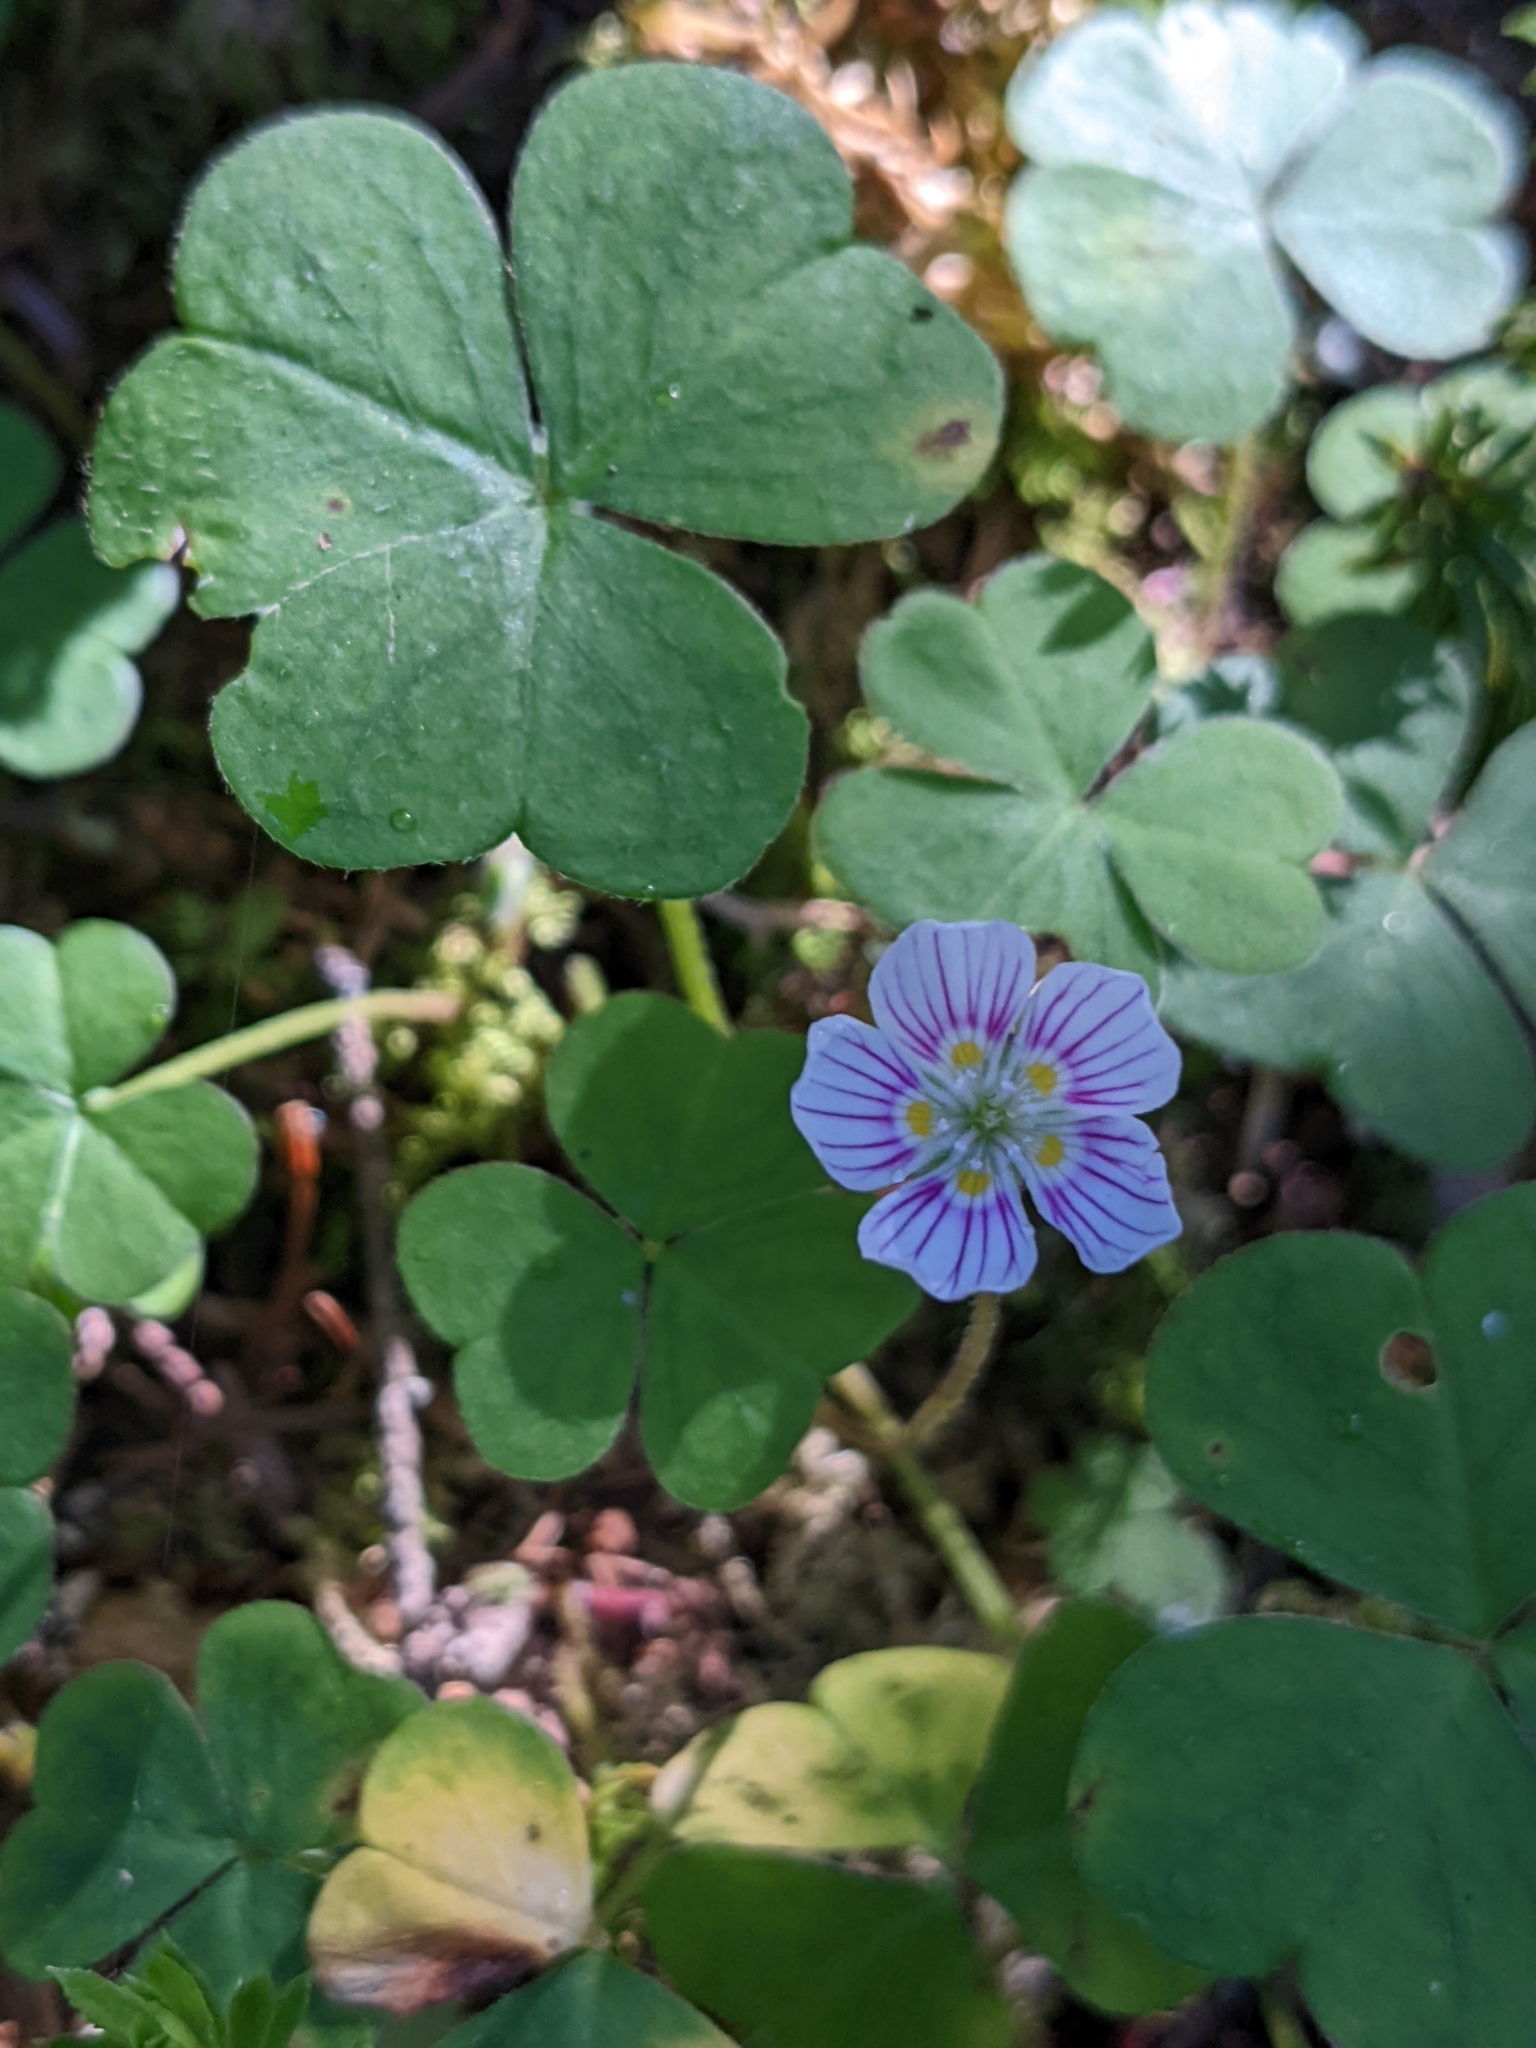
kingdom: Plantae
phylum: Tracheophyta
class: Magnoliopsida
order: Oxalidales
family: Oxalidaceae
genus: Oxalis
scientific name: Oxalis montana
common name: American wood-sorrel
